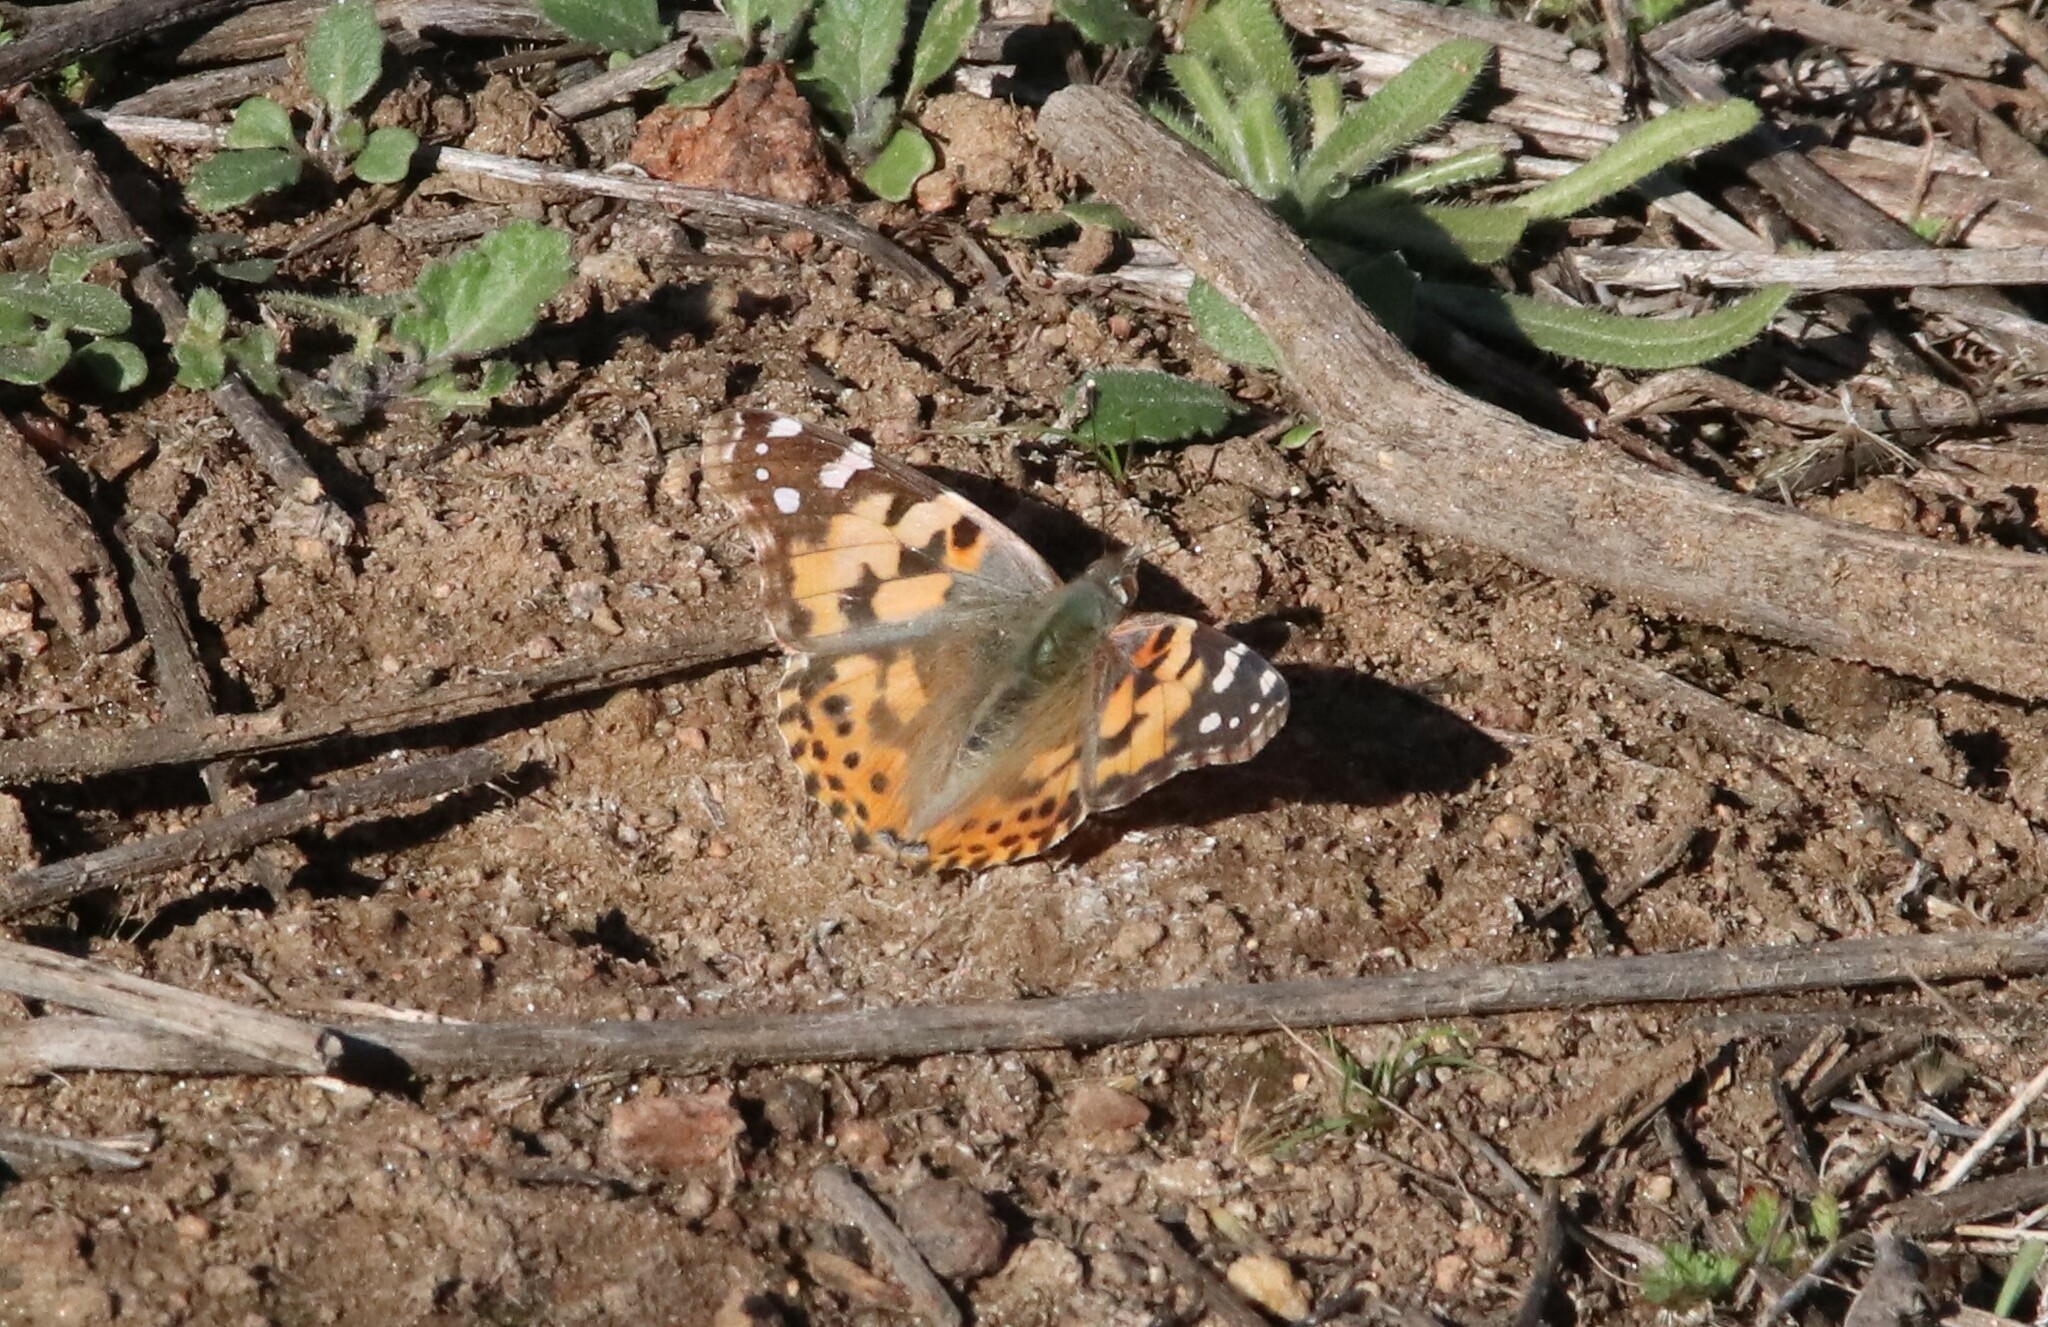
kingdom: Animalia
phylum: Arthropoda
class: Insecta
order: Lepidoptera
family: Nymphalidae
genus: Vanessa
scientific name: Vanessa cardui
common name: Painted lady
